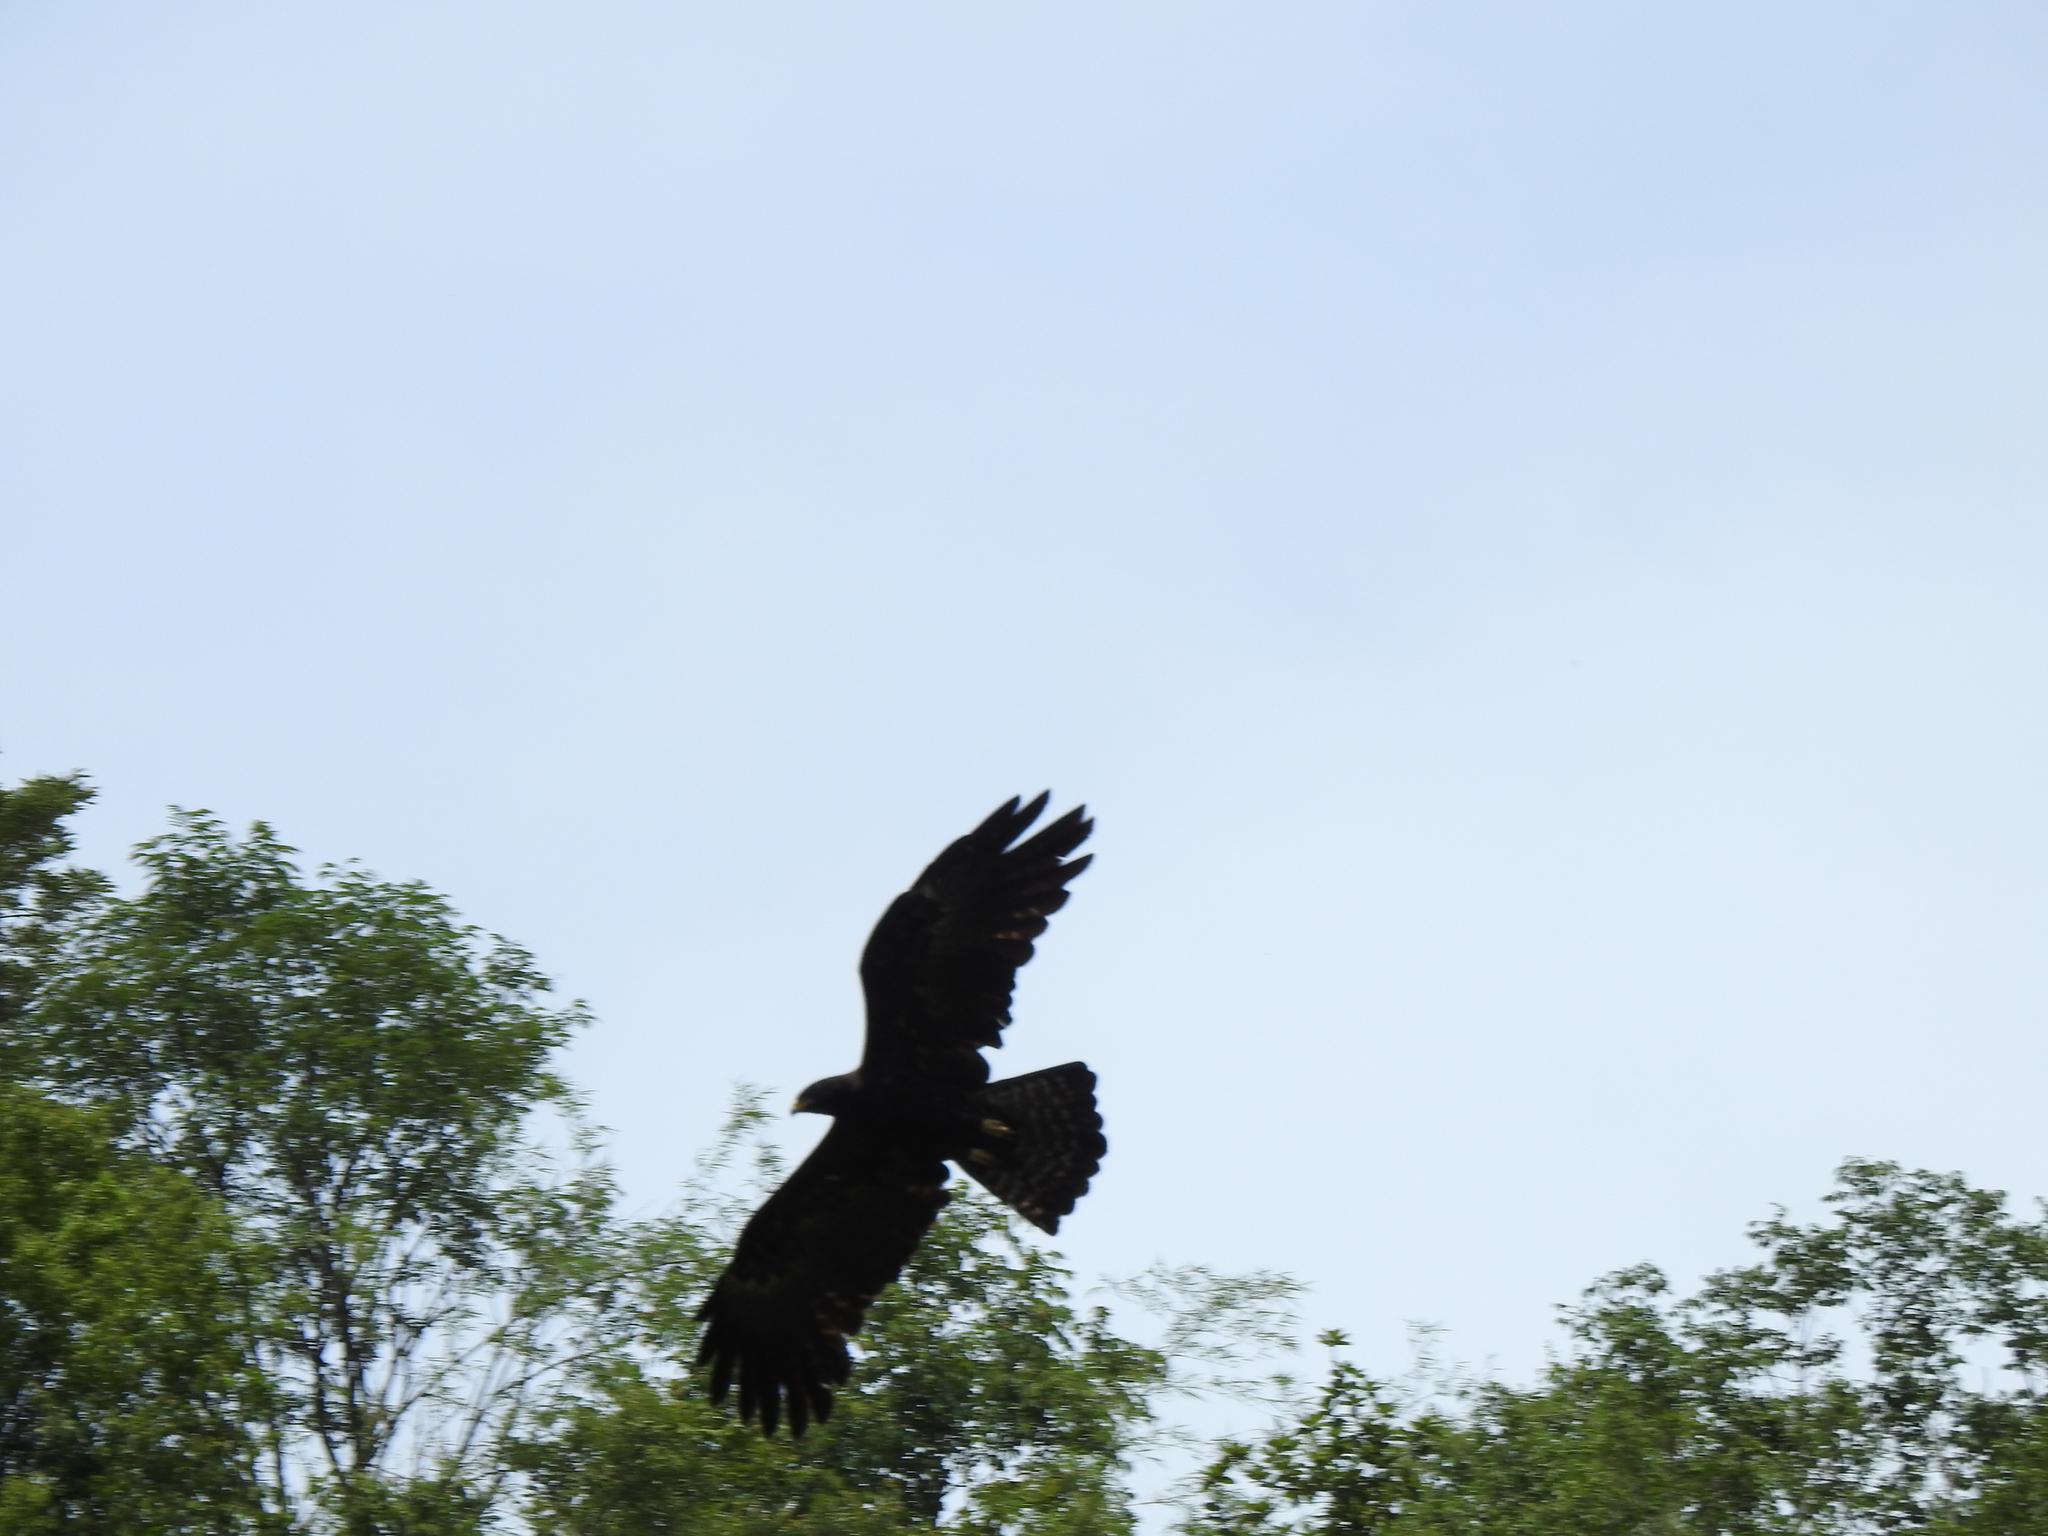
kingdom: Animalia
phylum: Chordata
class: Aves
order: Accipitriformes
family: Accipitridae
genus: Ictinaetus
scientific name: Ictinaetus malayensis
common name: Black eagle
